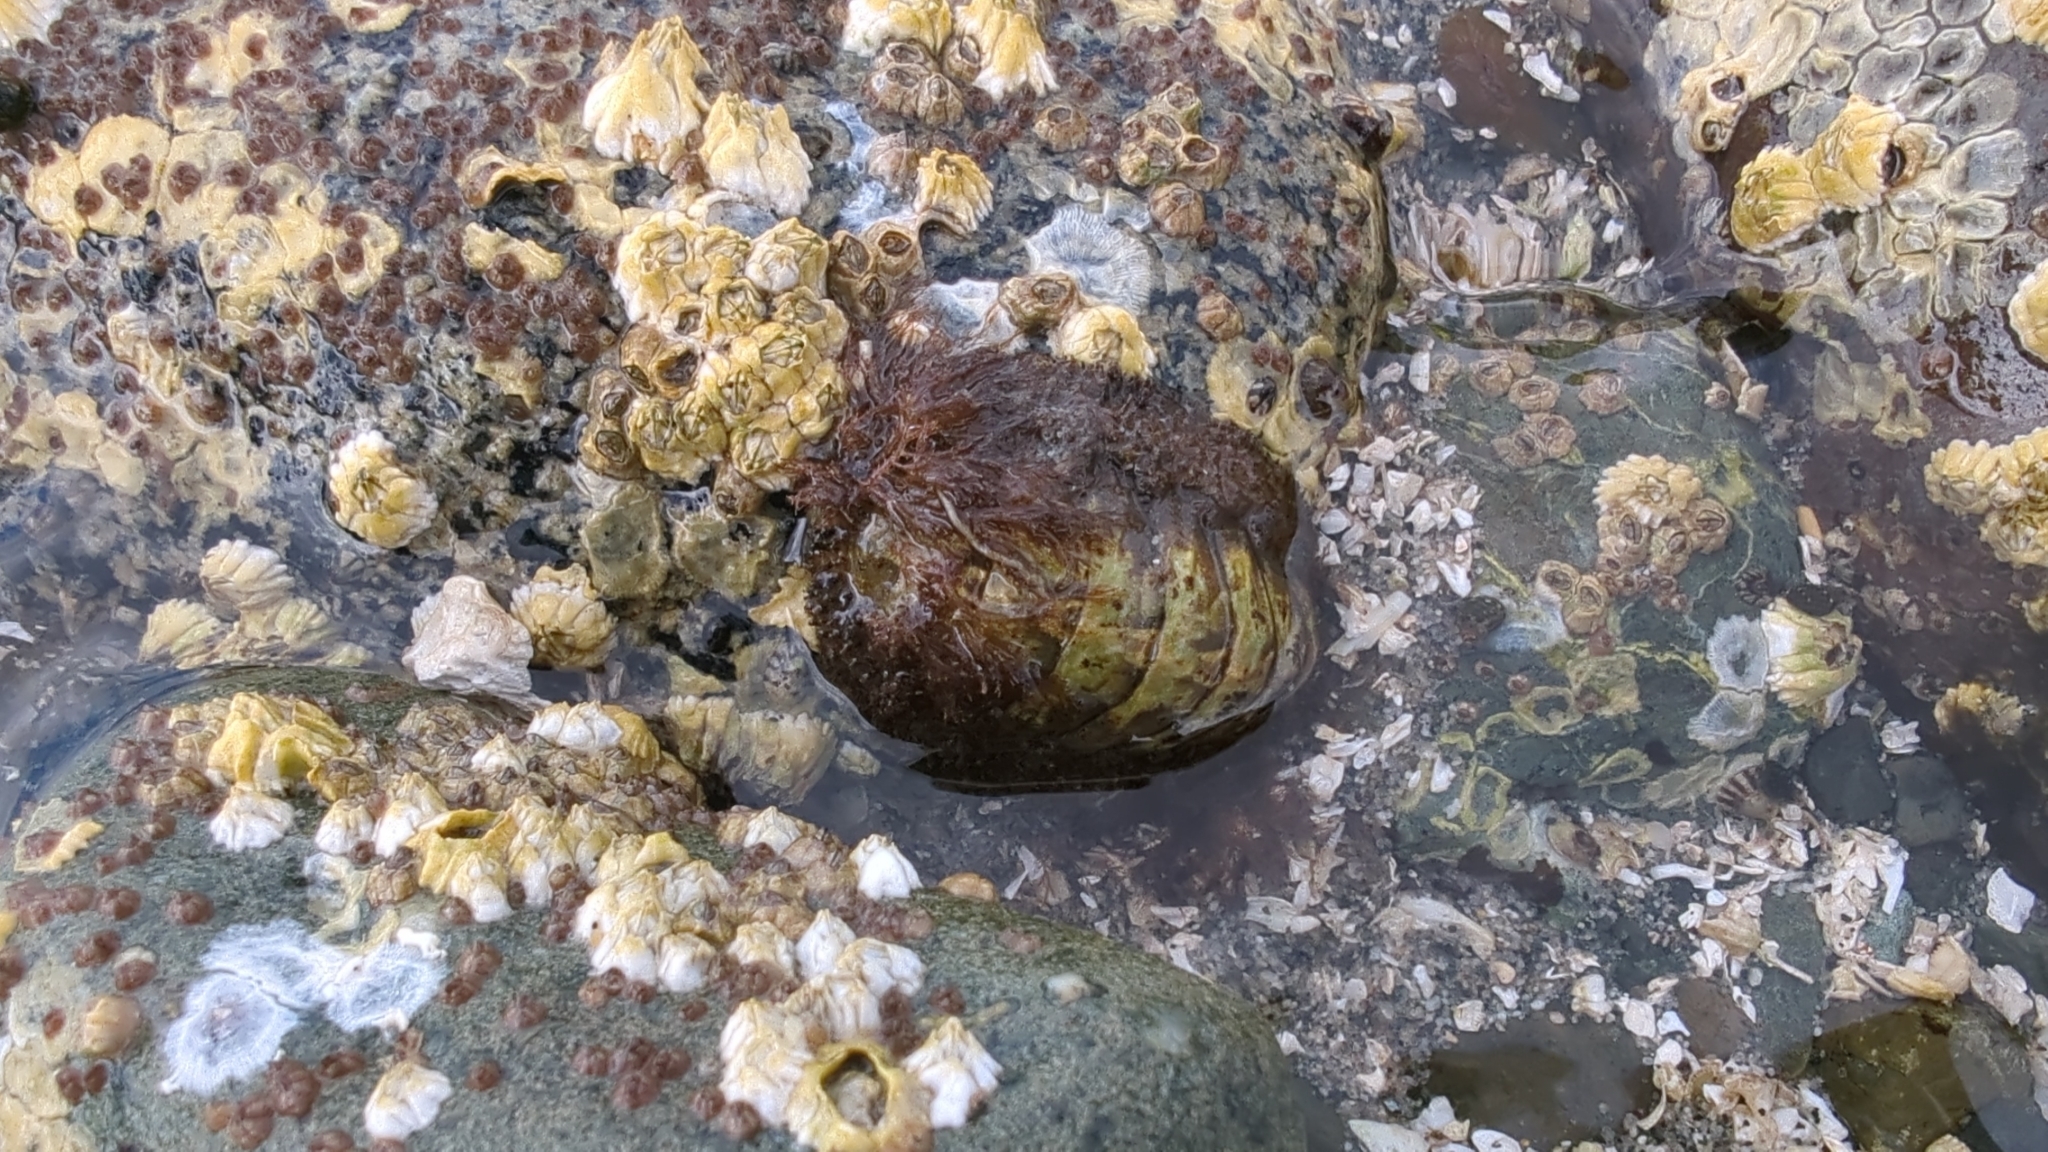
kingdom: Animalia
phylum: Mollusca
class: Polyplacophora
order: Chitonida
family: Mopaliidae
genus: Mopalia
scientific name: Mopalia muscosa
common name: Mossy chiton
